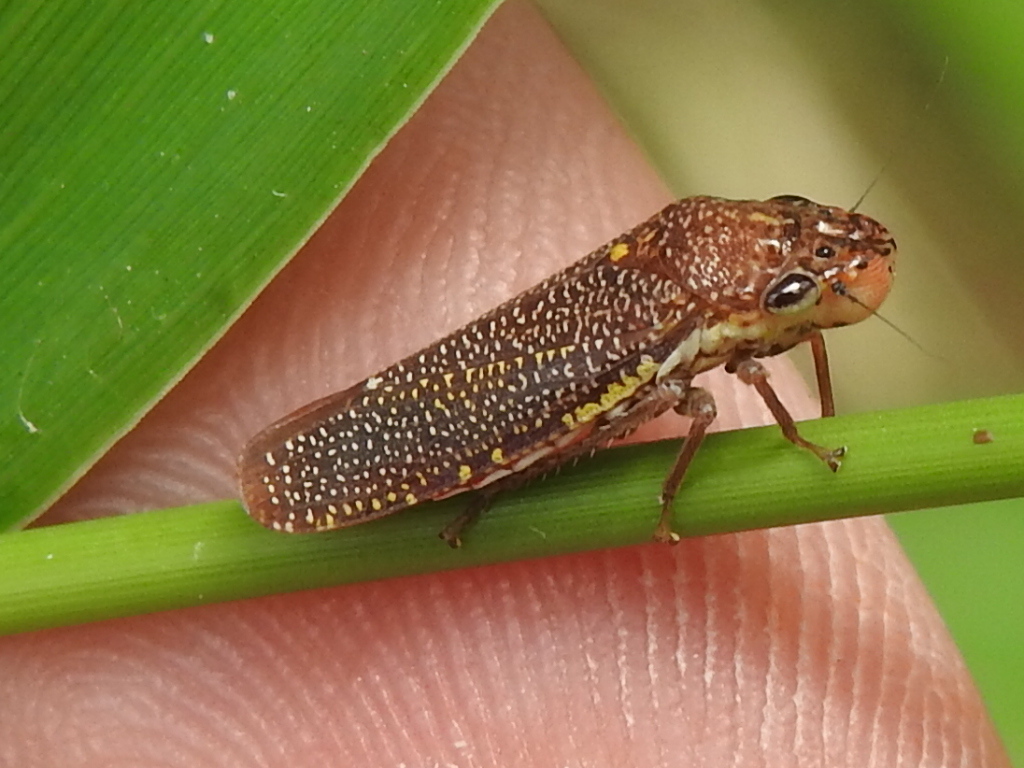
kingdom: Animalia
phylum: Arthropoda
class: Insecta
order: Hemiptera
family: Cicadellidae
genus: Paraulacizes
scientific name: Paraulacizes irrorata
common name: Speckled sharpshooter
